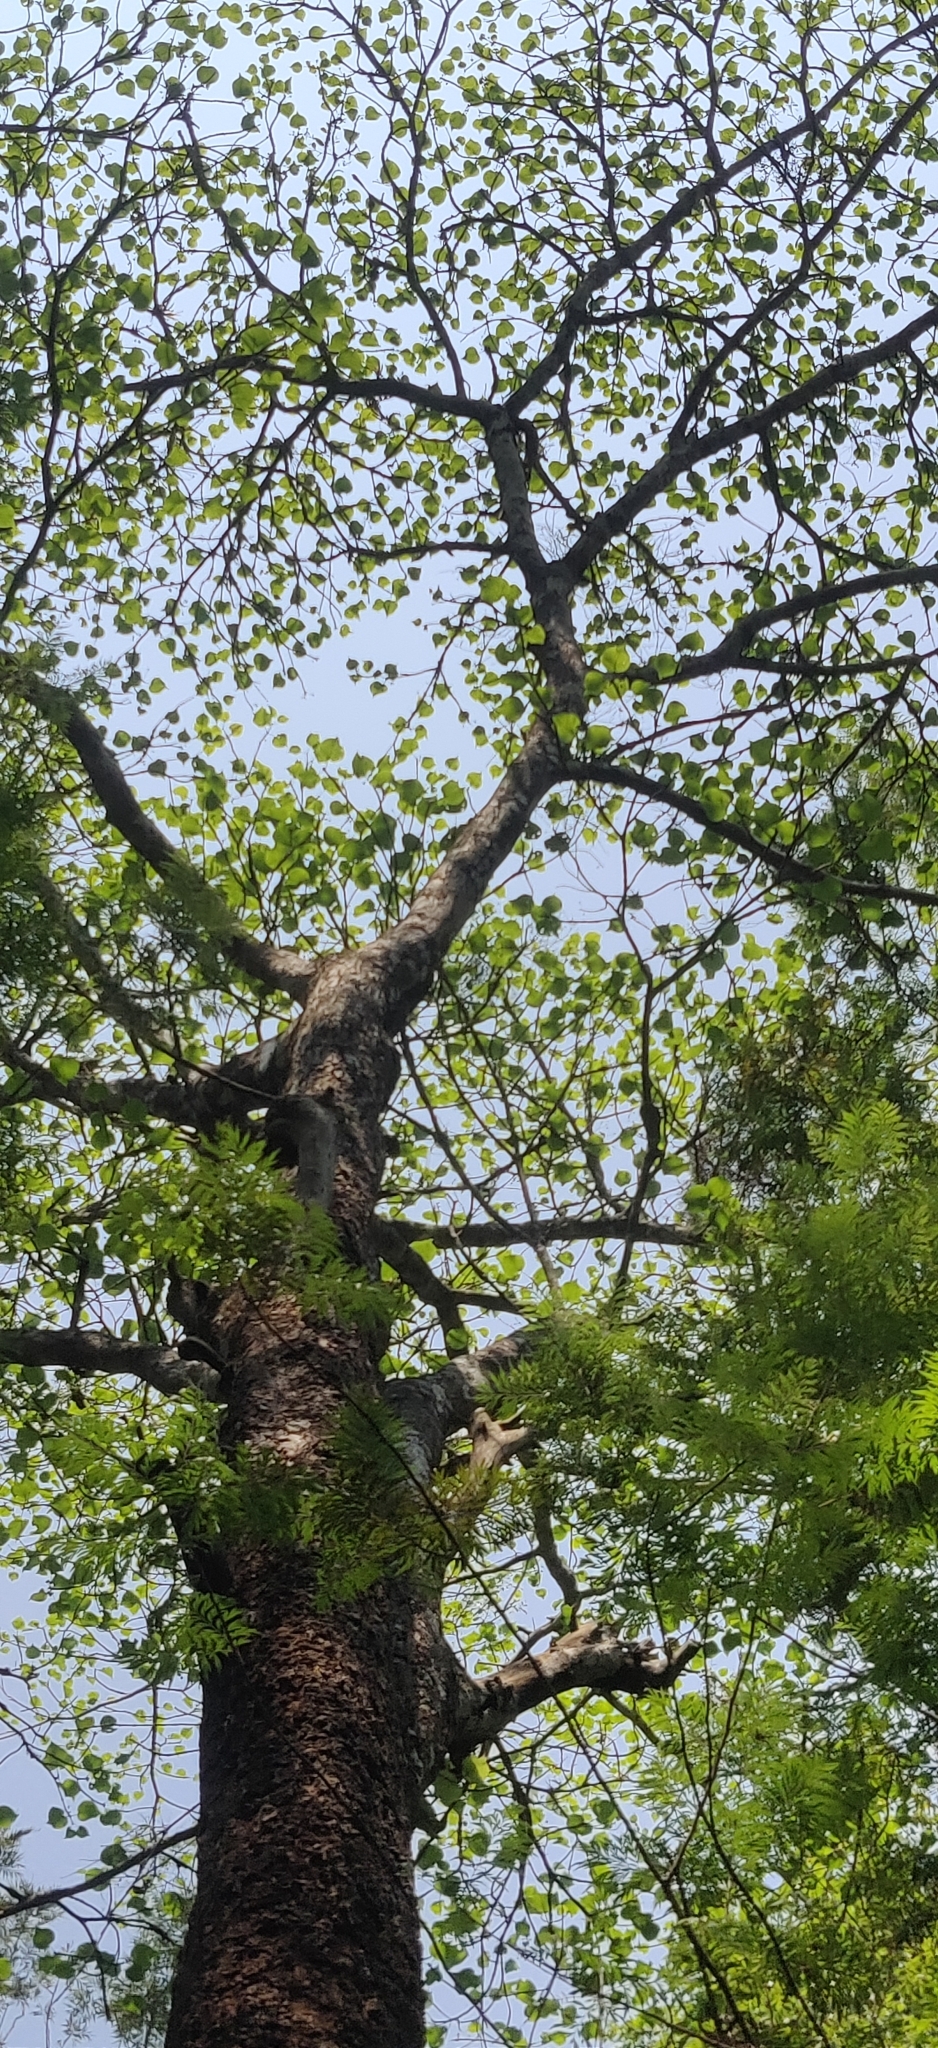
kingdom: Plantae
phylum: Tracheophyta
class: Magnoliopsida
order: Gentianales
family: Rubiaceae
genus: Adina
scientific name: Adina cordifolia
